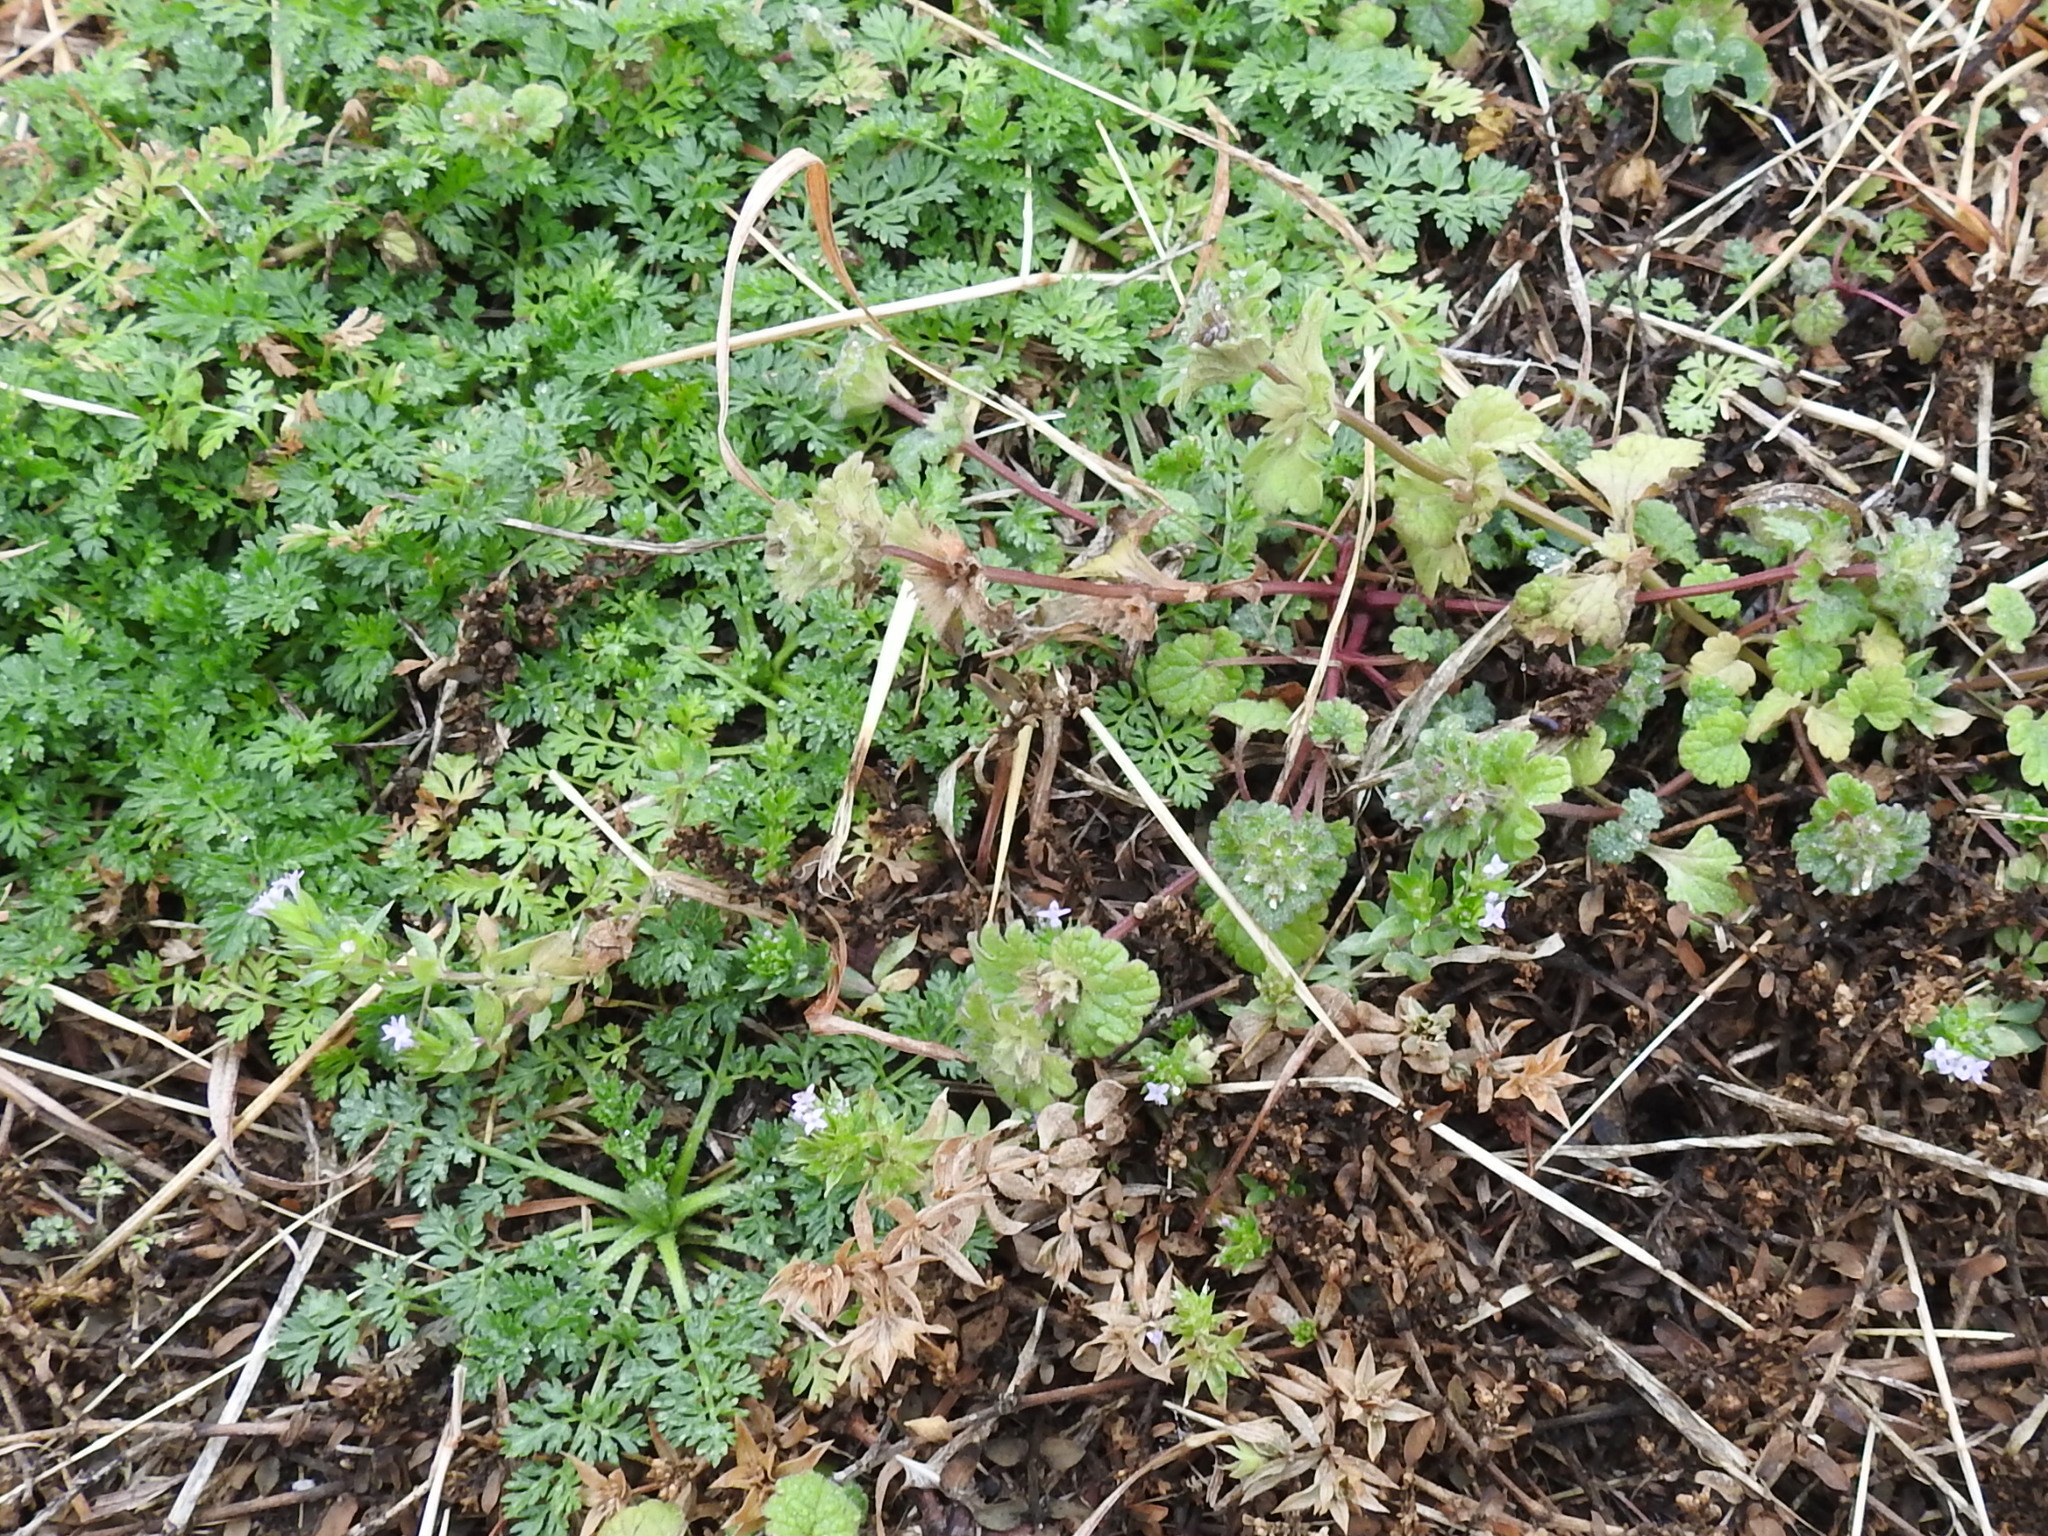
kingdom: Plantae
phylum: Tracheophyta
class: Magnoliopsida
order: Gentianales
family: Rubiaceae
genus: Sherardia
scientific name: Sherardia arvensis
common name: Field madder
